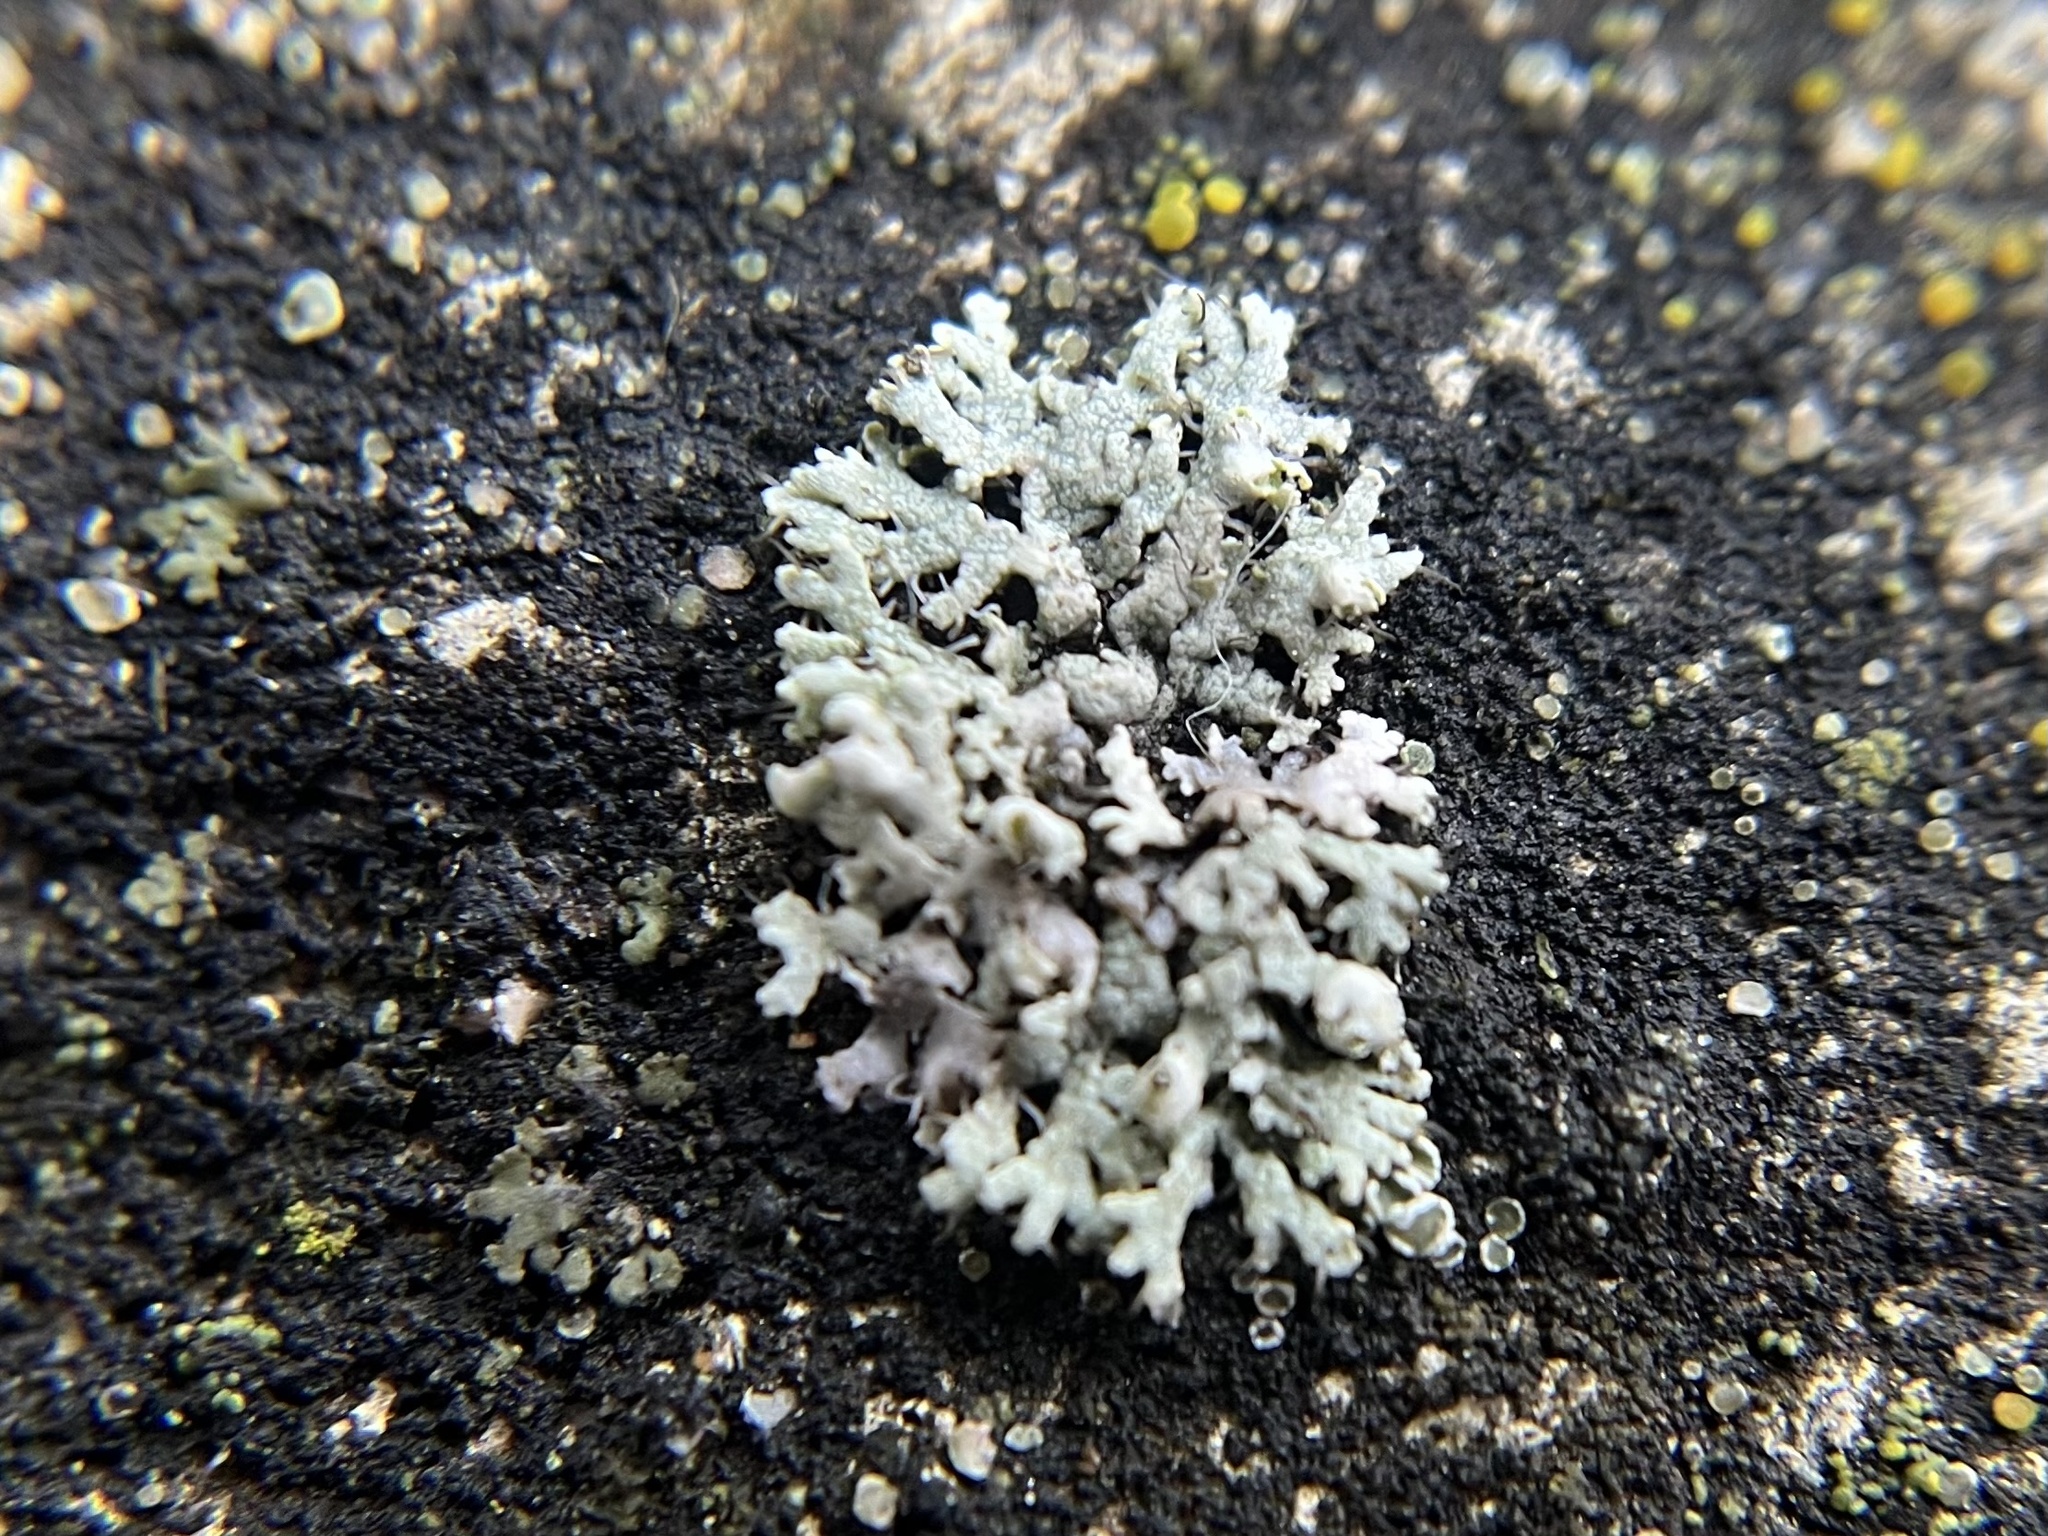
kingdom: Fungi
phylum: Ascomycota
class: Lecanoromycetes
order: Caliciales
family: Physciaceae
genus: Physcia
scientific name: Physcia adscendens
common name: Hooded rosette lichen
